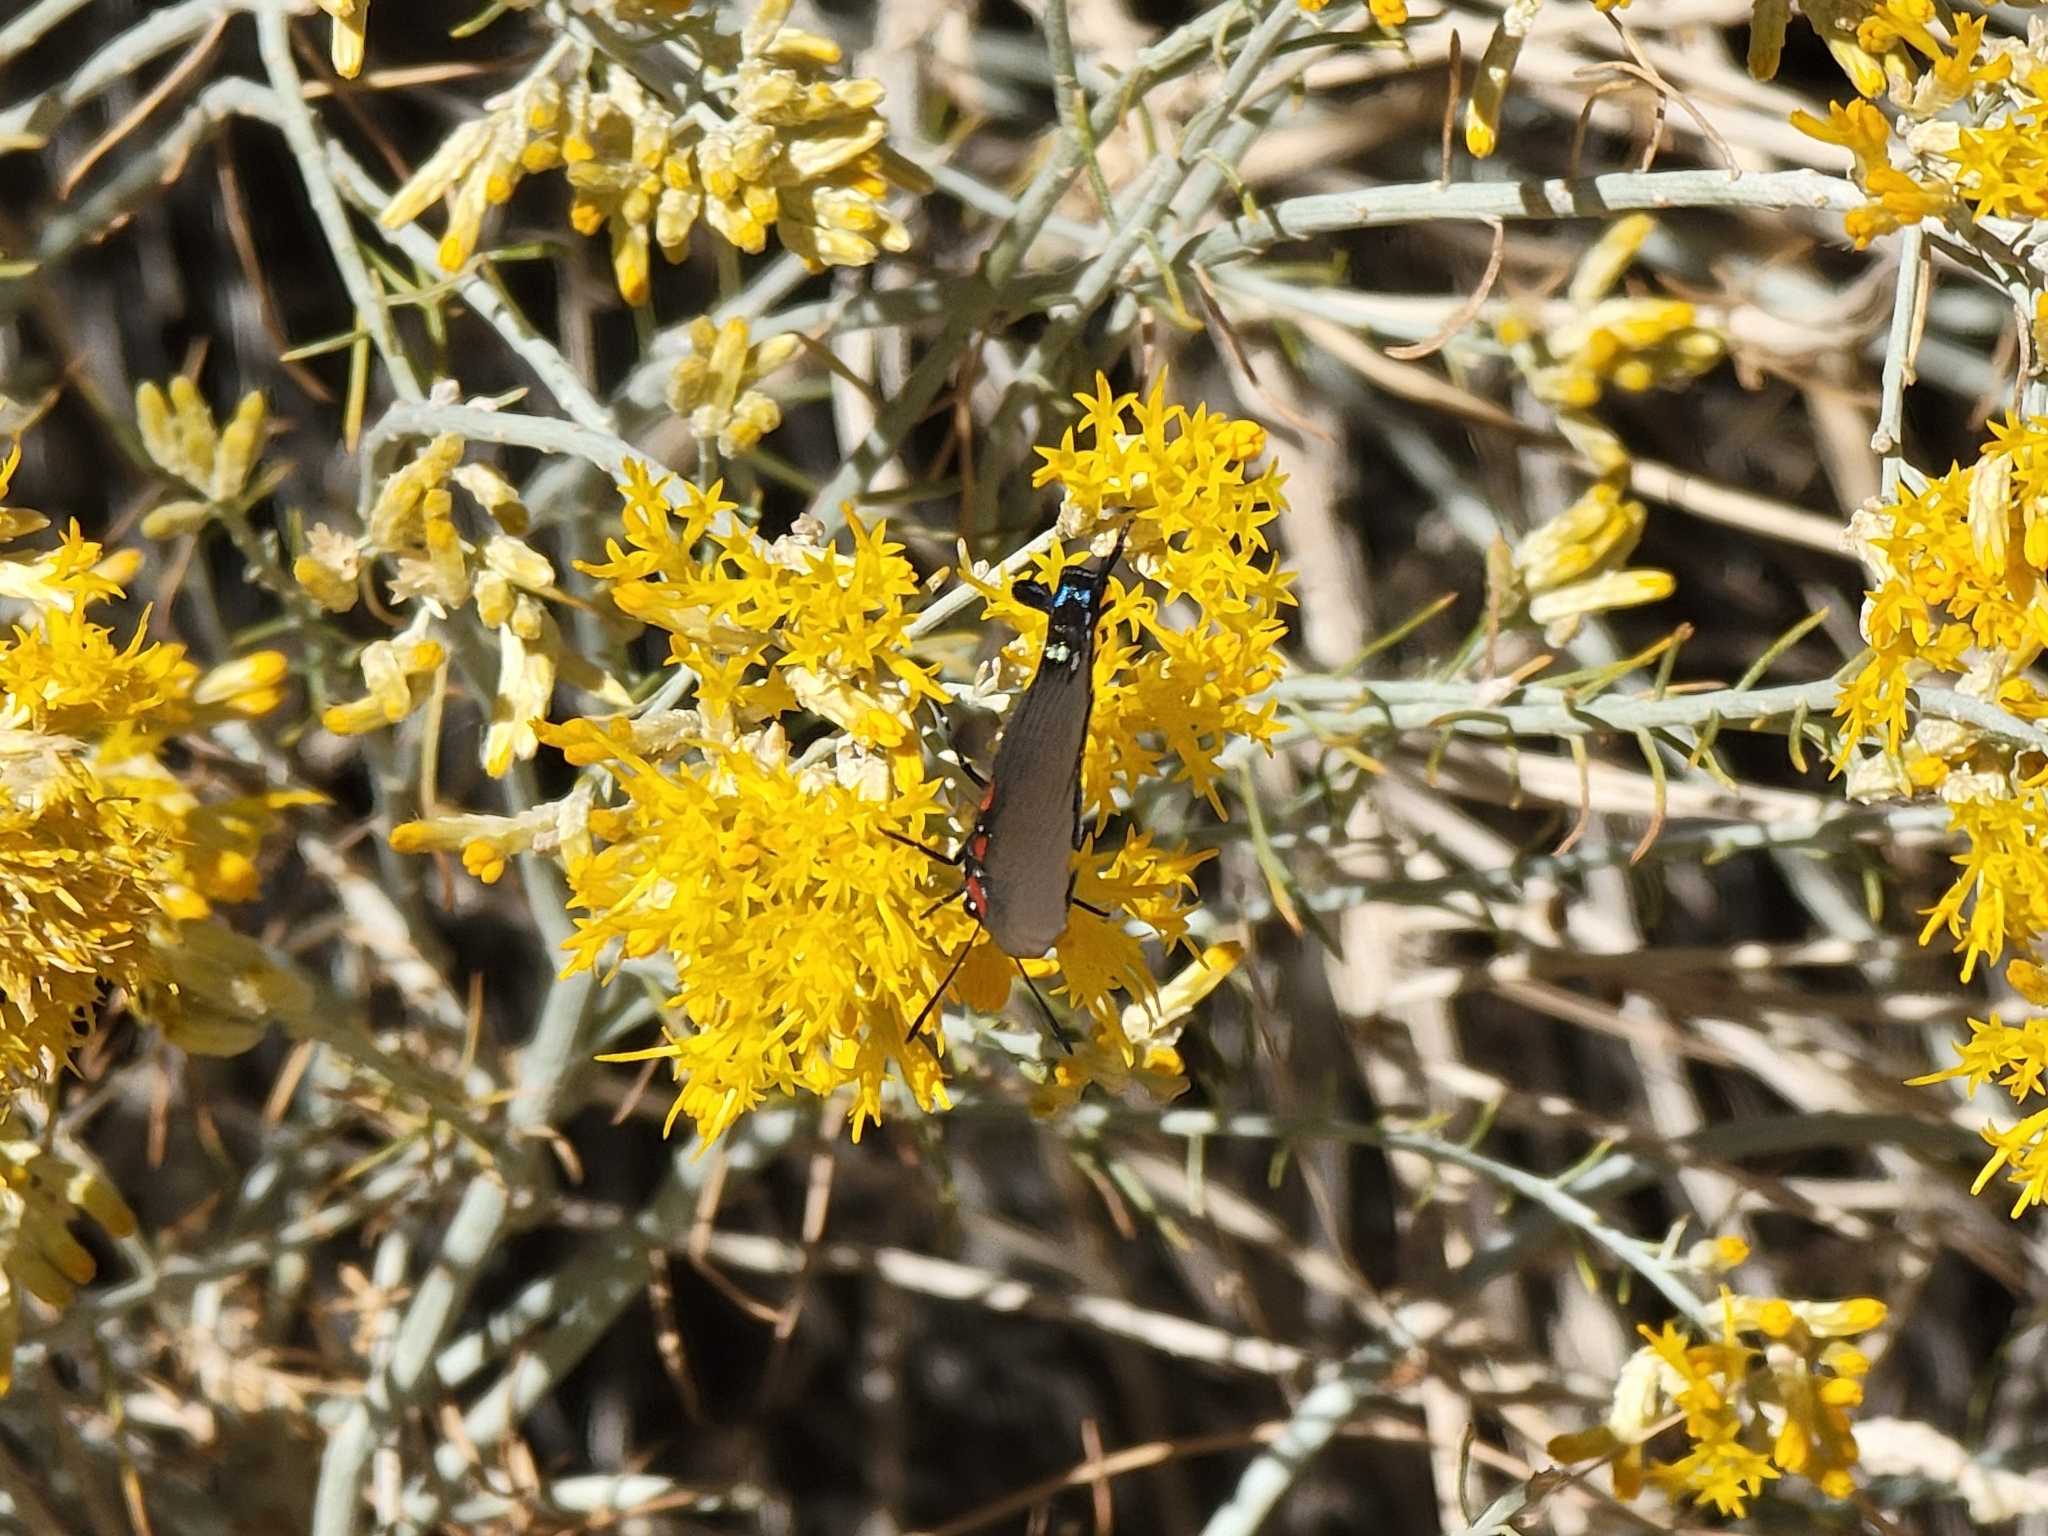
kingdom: Animalia
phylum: Arthropoda
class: Insecta
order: Lepidoptera
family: Lycaenidae
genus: Atlides
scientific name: Atlides halesus
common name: Great purple hairstreak
